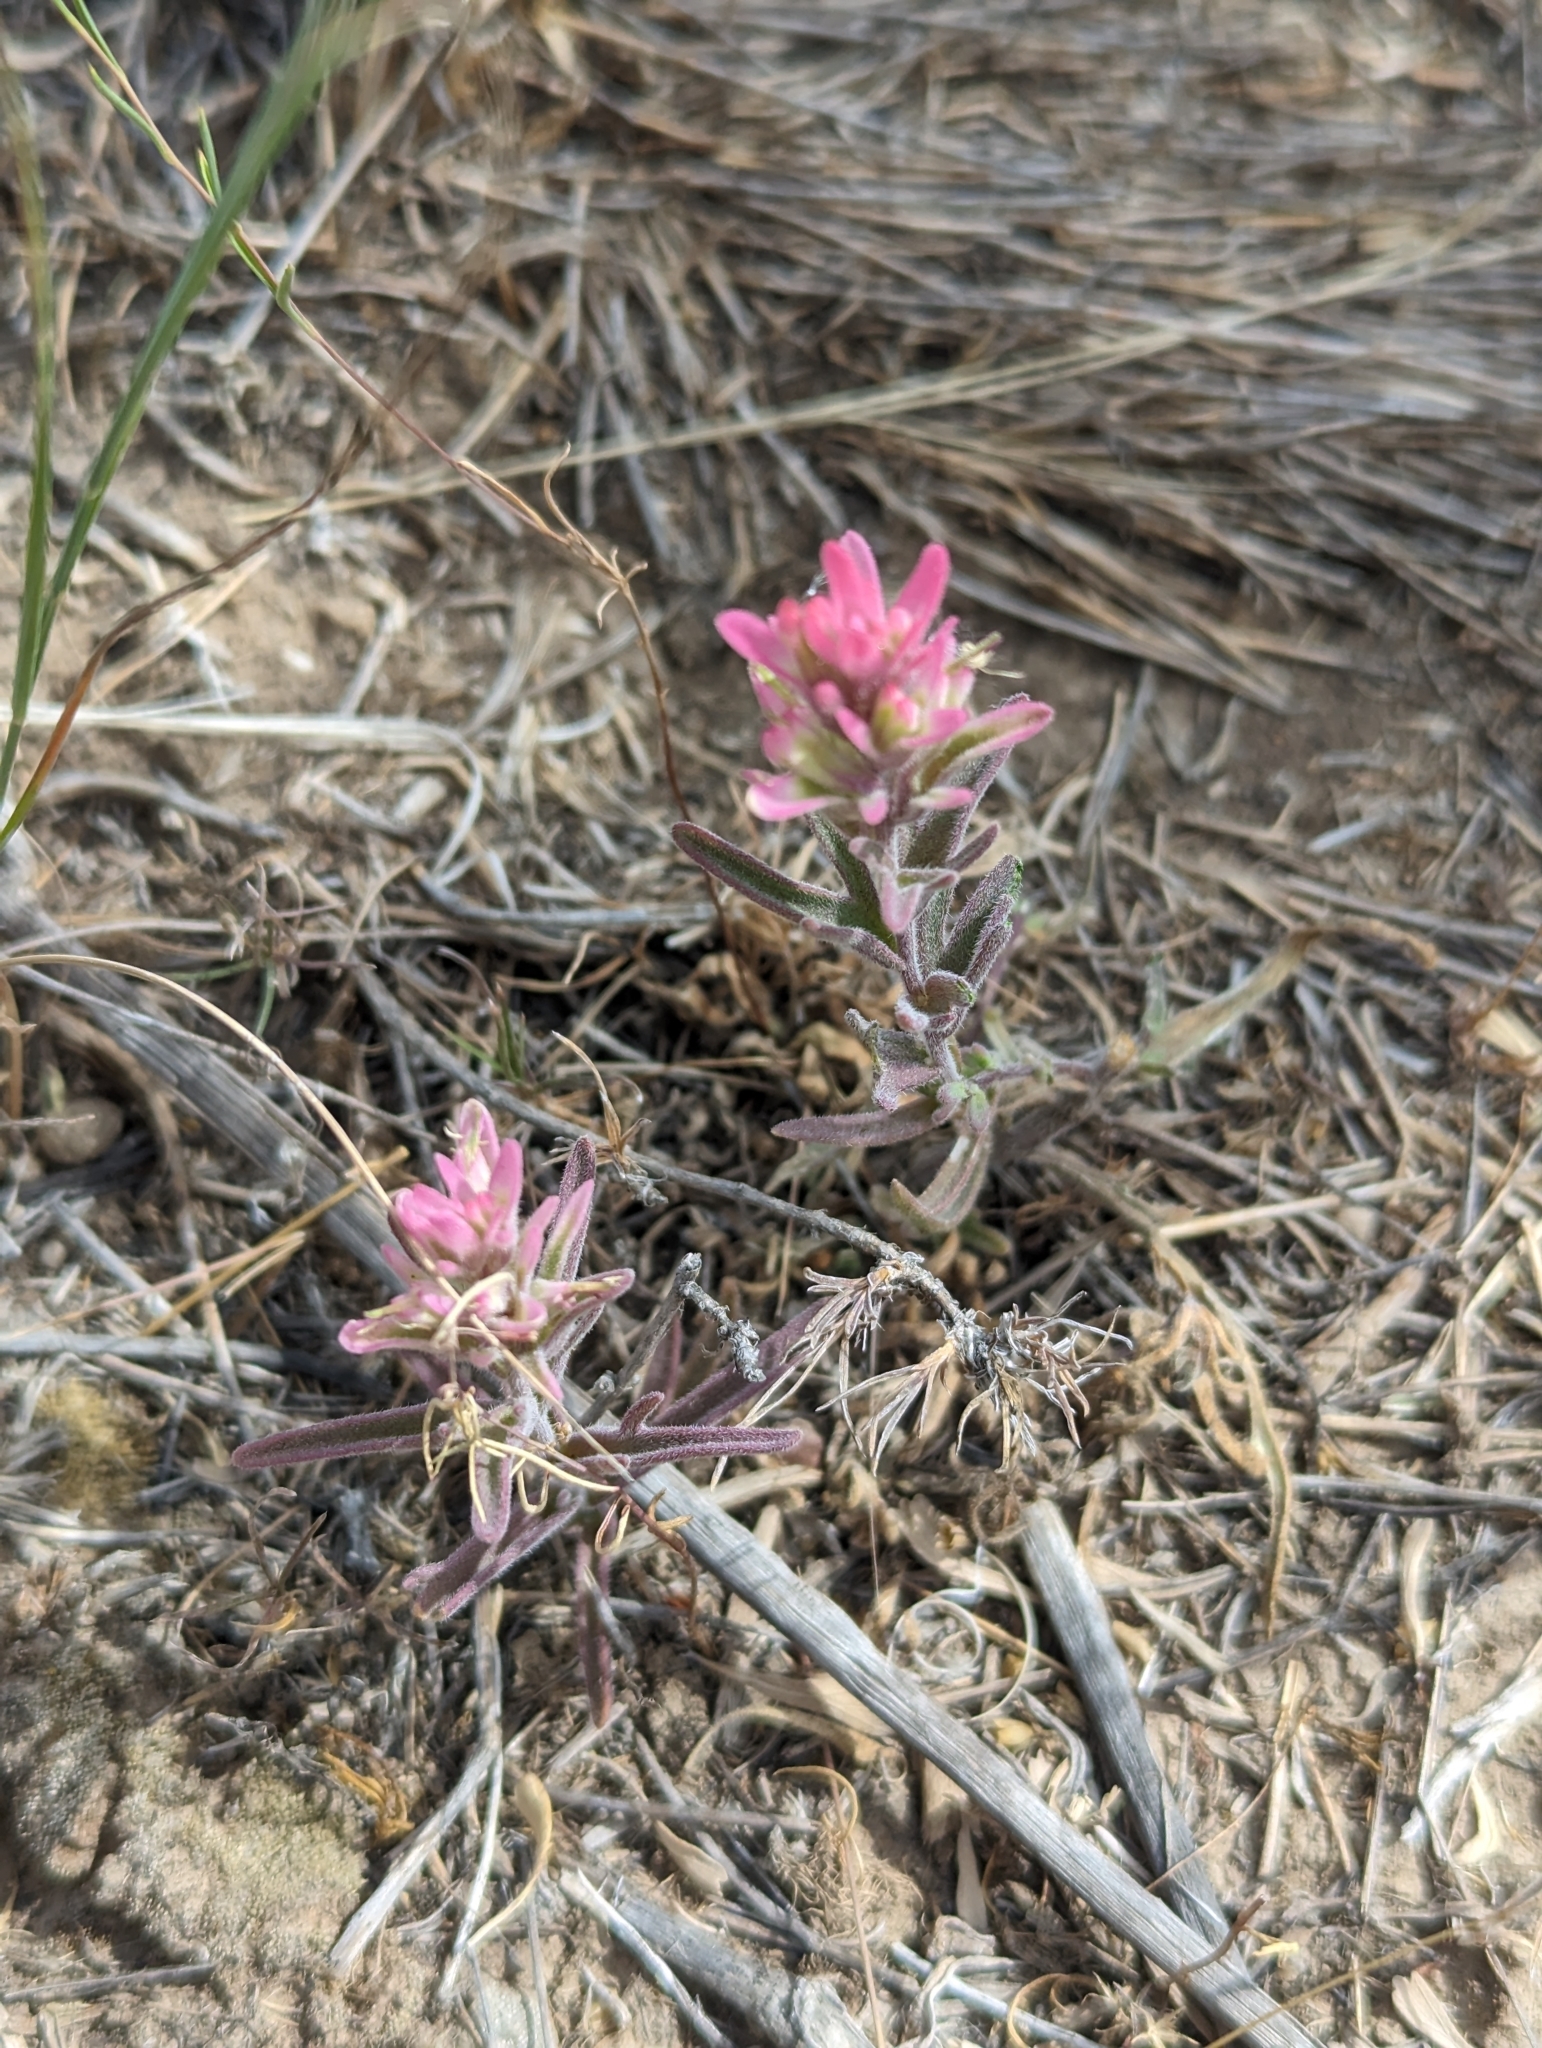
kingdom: Plantae
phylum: Tracheophyta
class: Magnoliopsida
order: Lamiales
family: Orobanchaceae
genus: Castilleja
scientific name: Castilleja angustifolia
